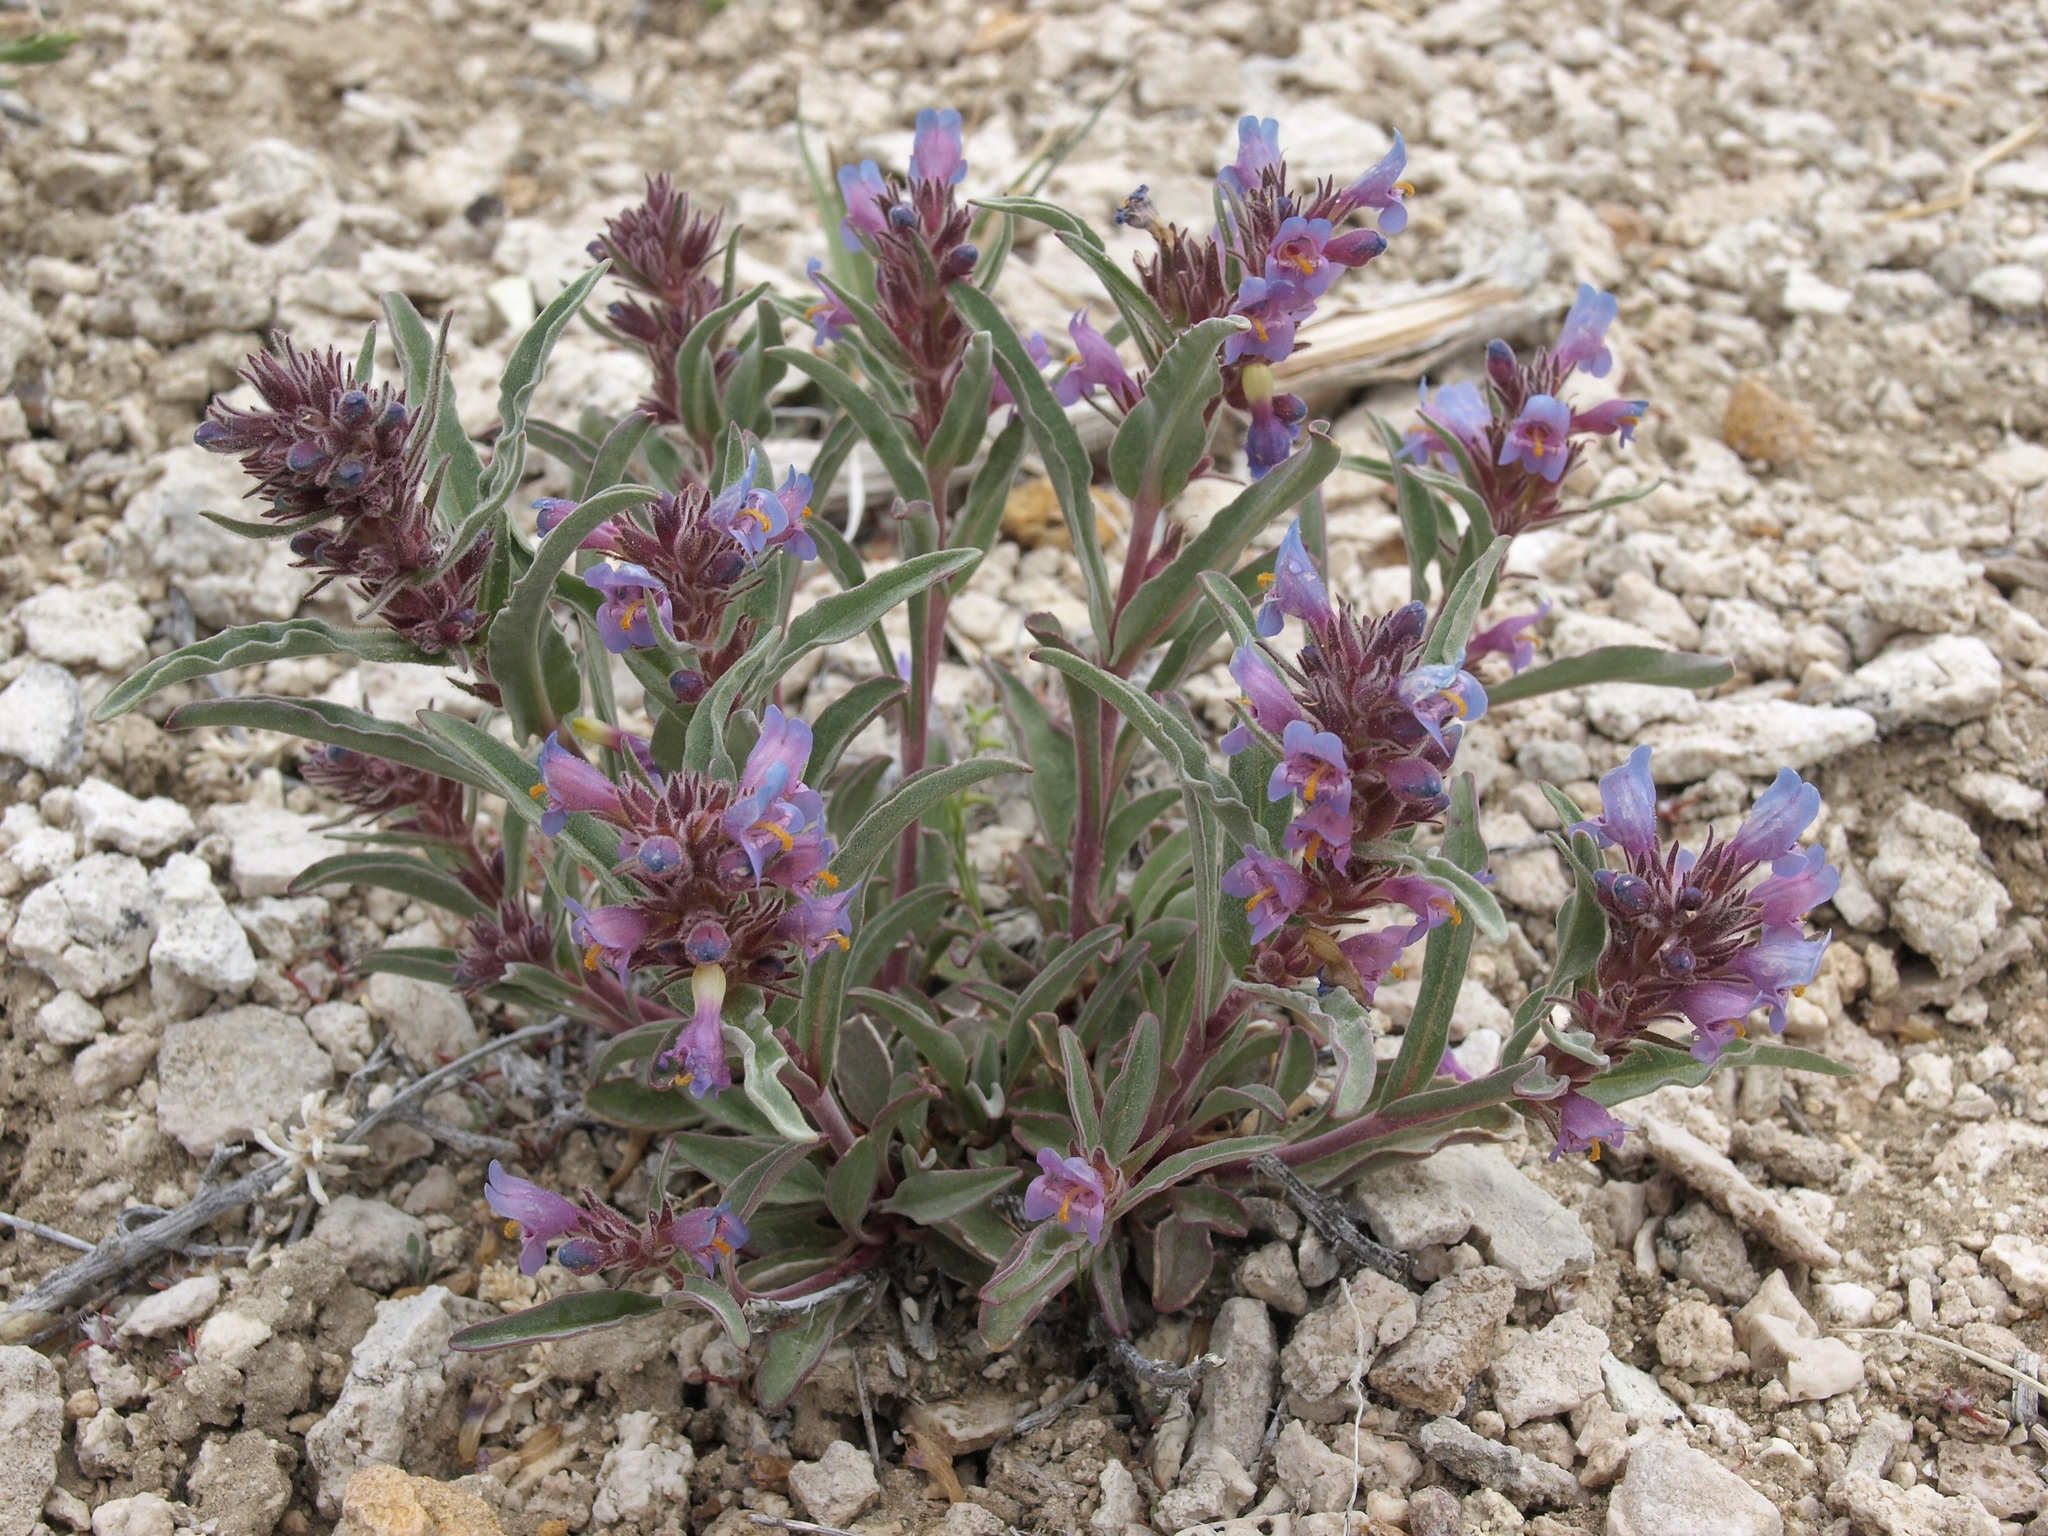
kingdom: Plantae
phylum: Tracheophyta
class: Magnoliopsida
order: Lamiales
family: Plantaginaceae
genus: Penstemon
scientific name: Penstemon barnebyi
